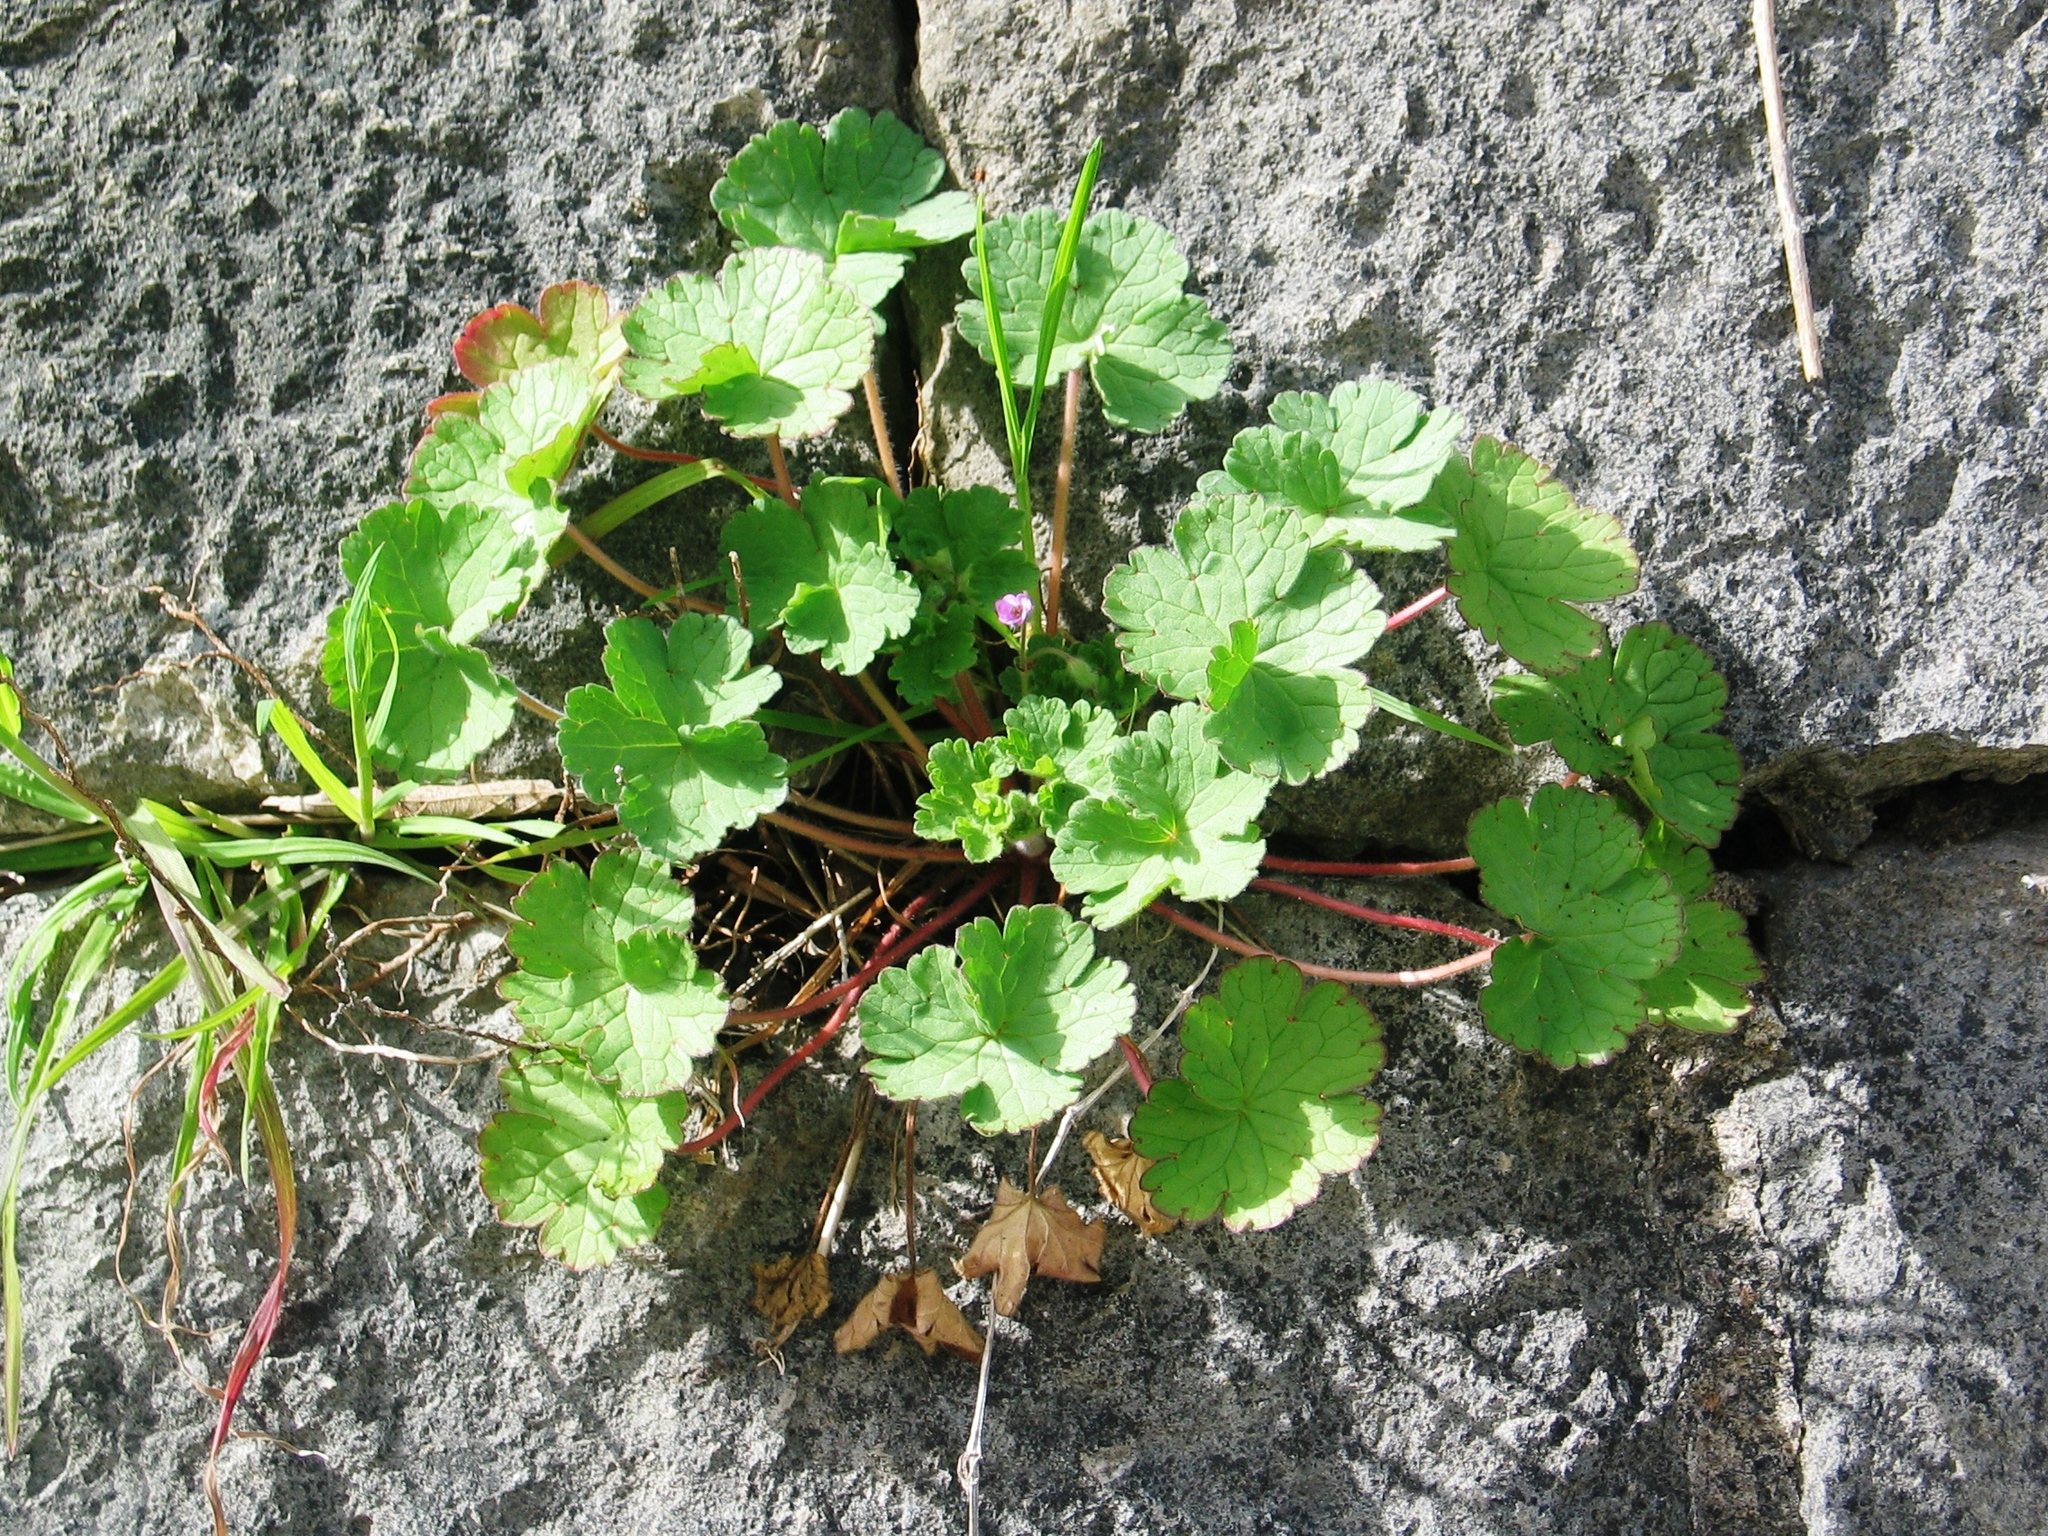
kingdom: Plantae
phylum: Tracheophyta
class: Magnoliopsida
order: Geraniales
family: Geraniaceae
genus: Geranium
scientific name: Geranium rotundifolium
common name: Round-leaved crane's-bill
